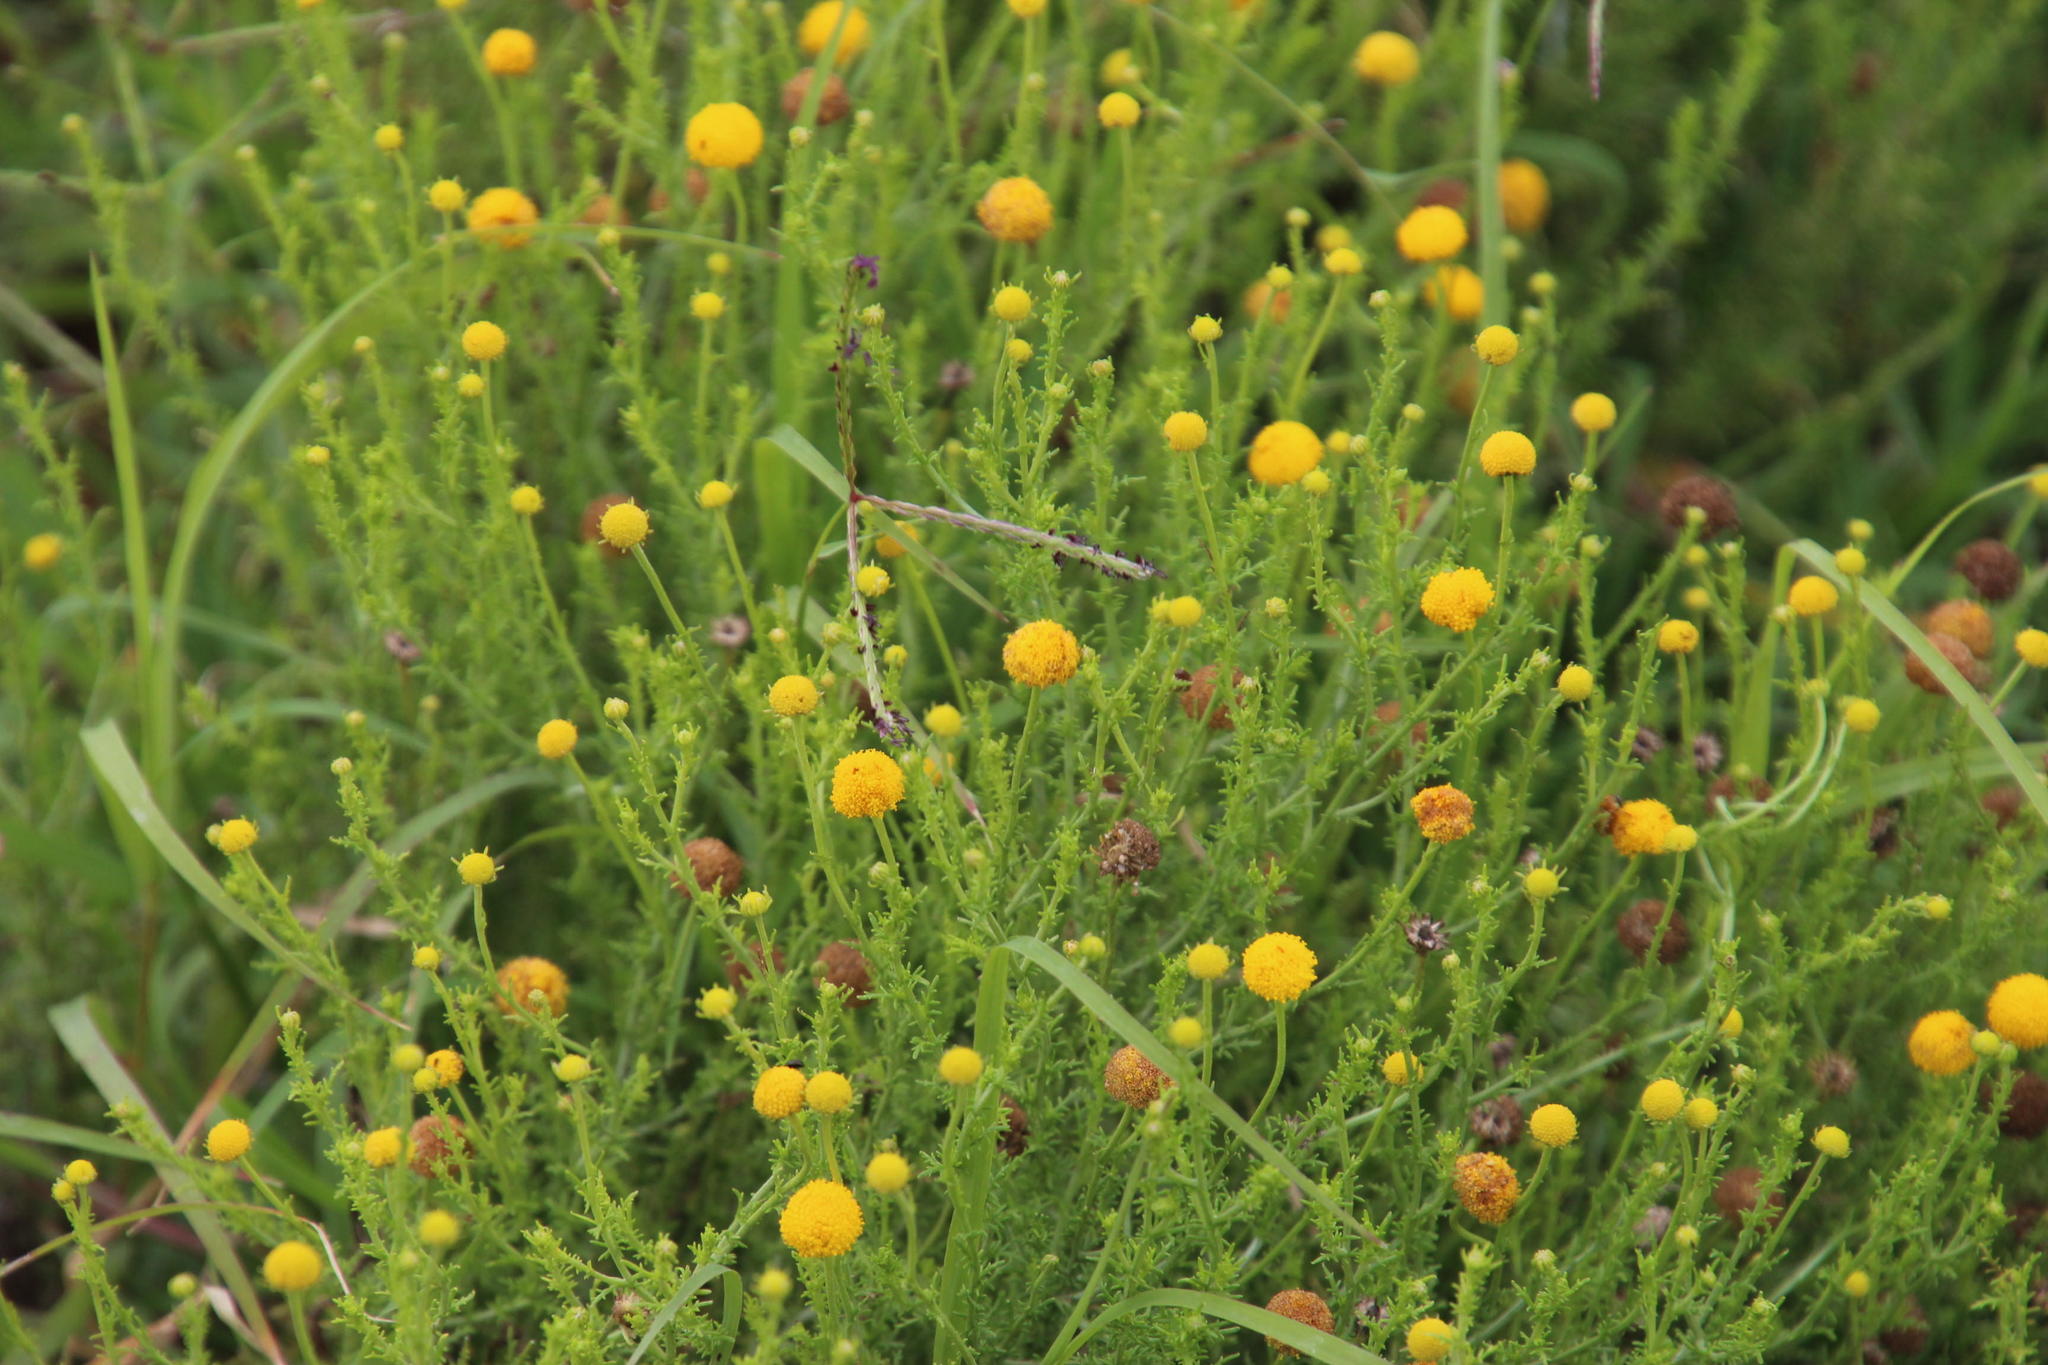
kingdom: Plantae
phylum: Tracheophyta
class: Magnoliopsida
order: Asterales
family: Asteraceae
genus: Chrysocoma
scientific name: Chrysocoma ciliata
